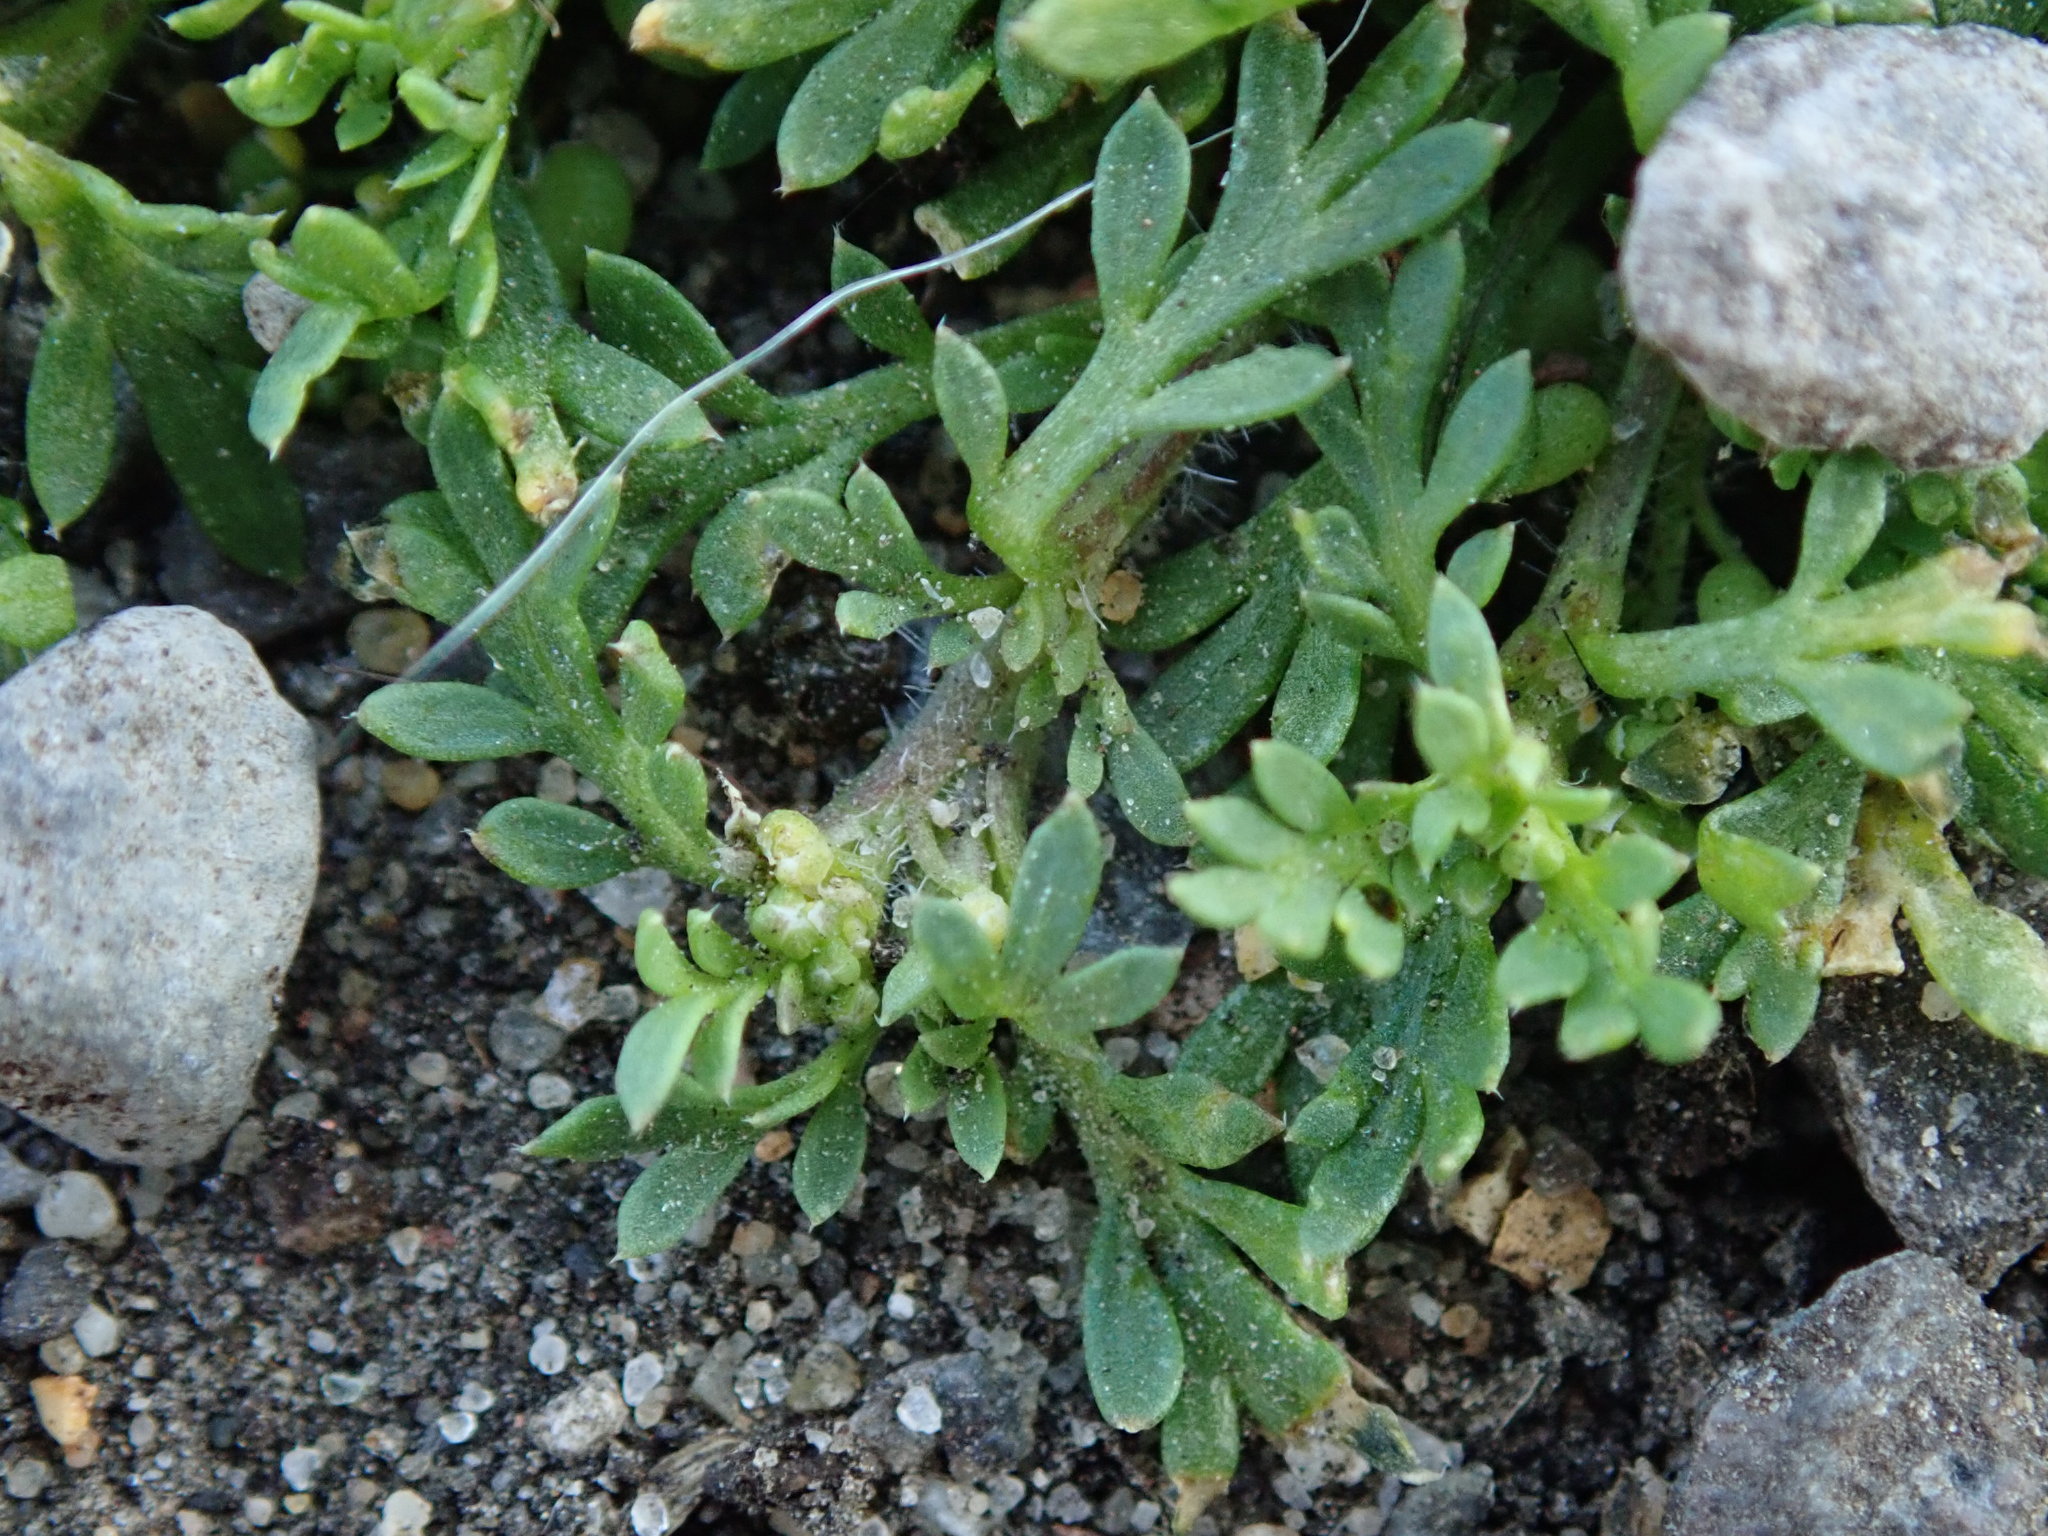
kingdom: Plantae
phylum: Tracheophyta
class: Magnoliopsida
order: Brassicales
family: Brassicaceae
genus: Lepidium
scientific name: Lepidium didymum
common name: Lesser swinecress
